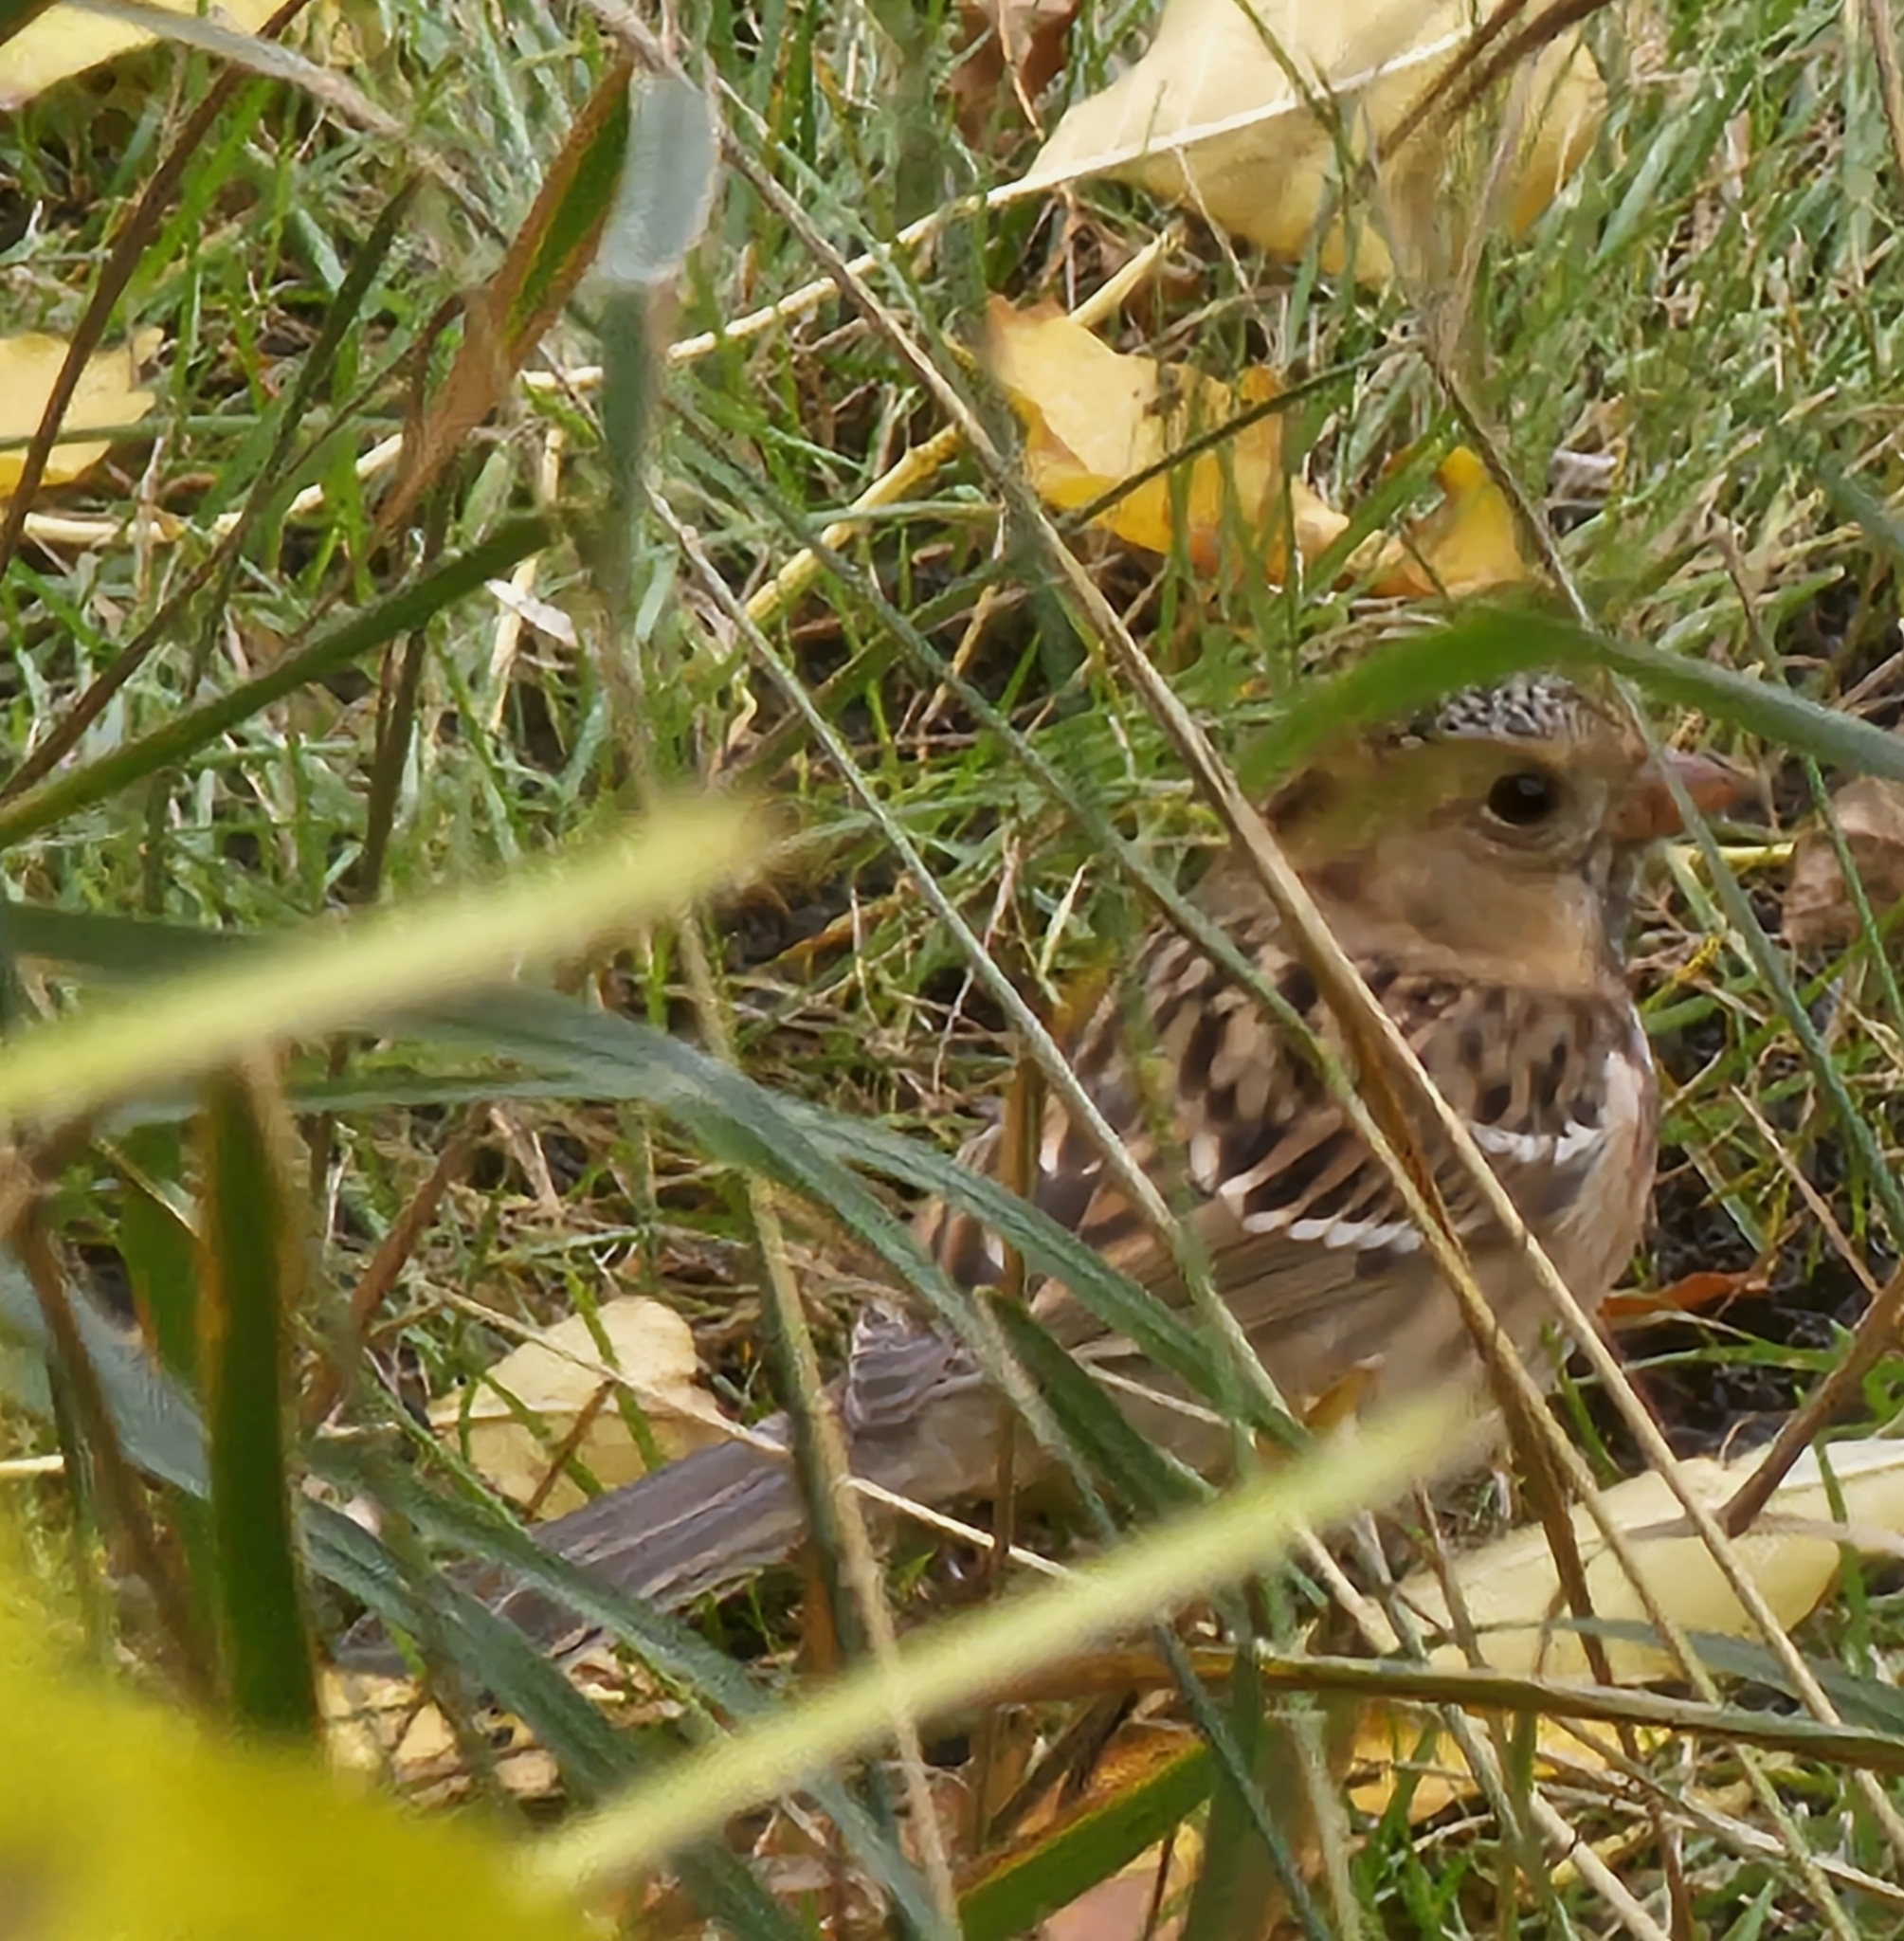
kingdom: Animalia
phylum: Chordata
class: Aves
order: Passeriformes
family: Passerellidae
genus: Zonotrichia
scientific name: Zonotrichia querula
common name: Harris's sparrow
